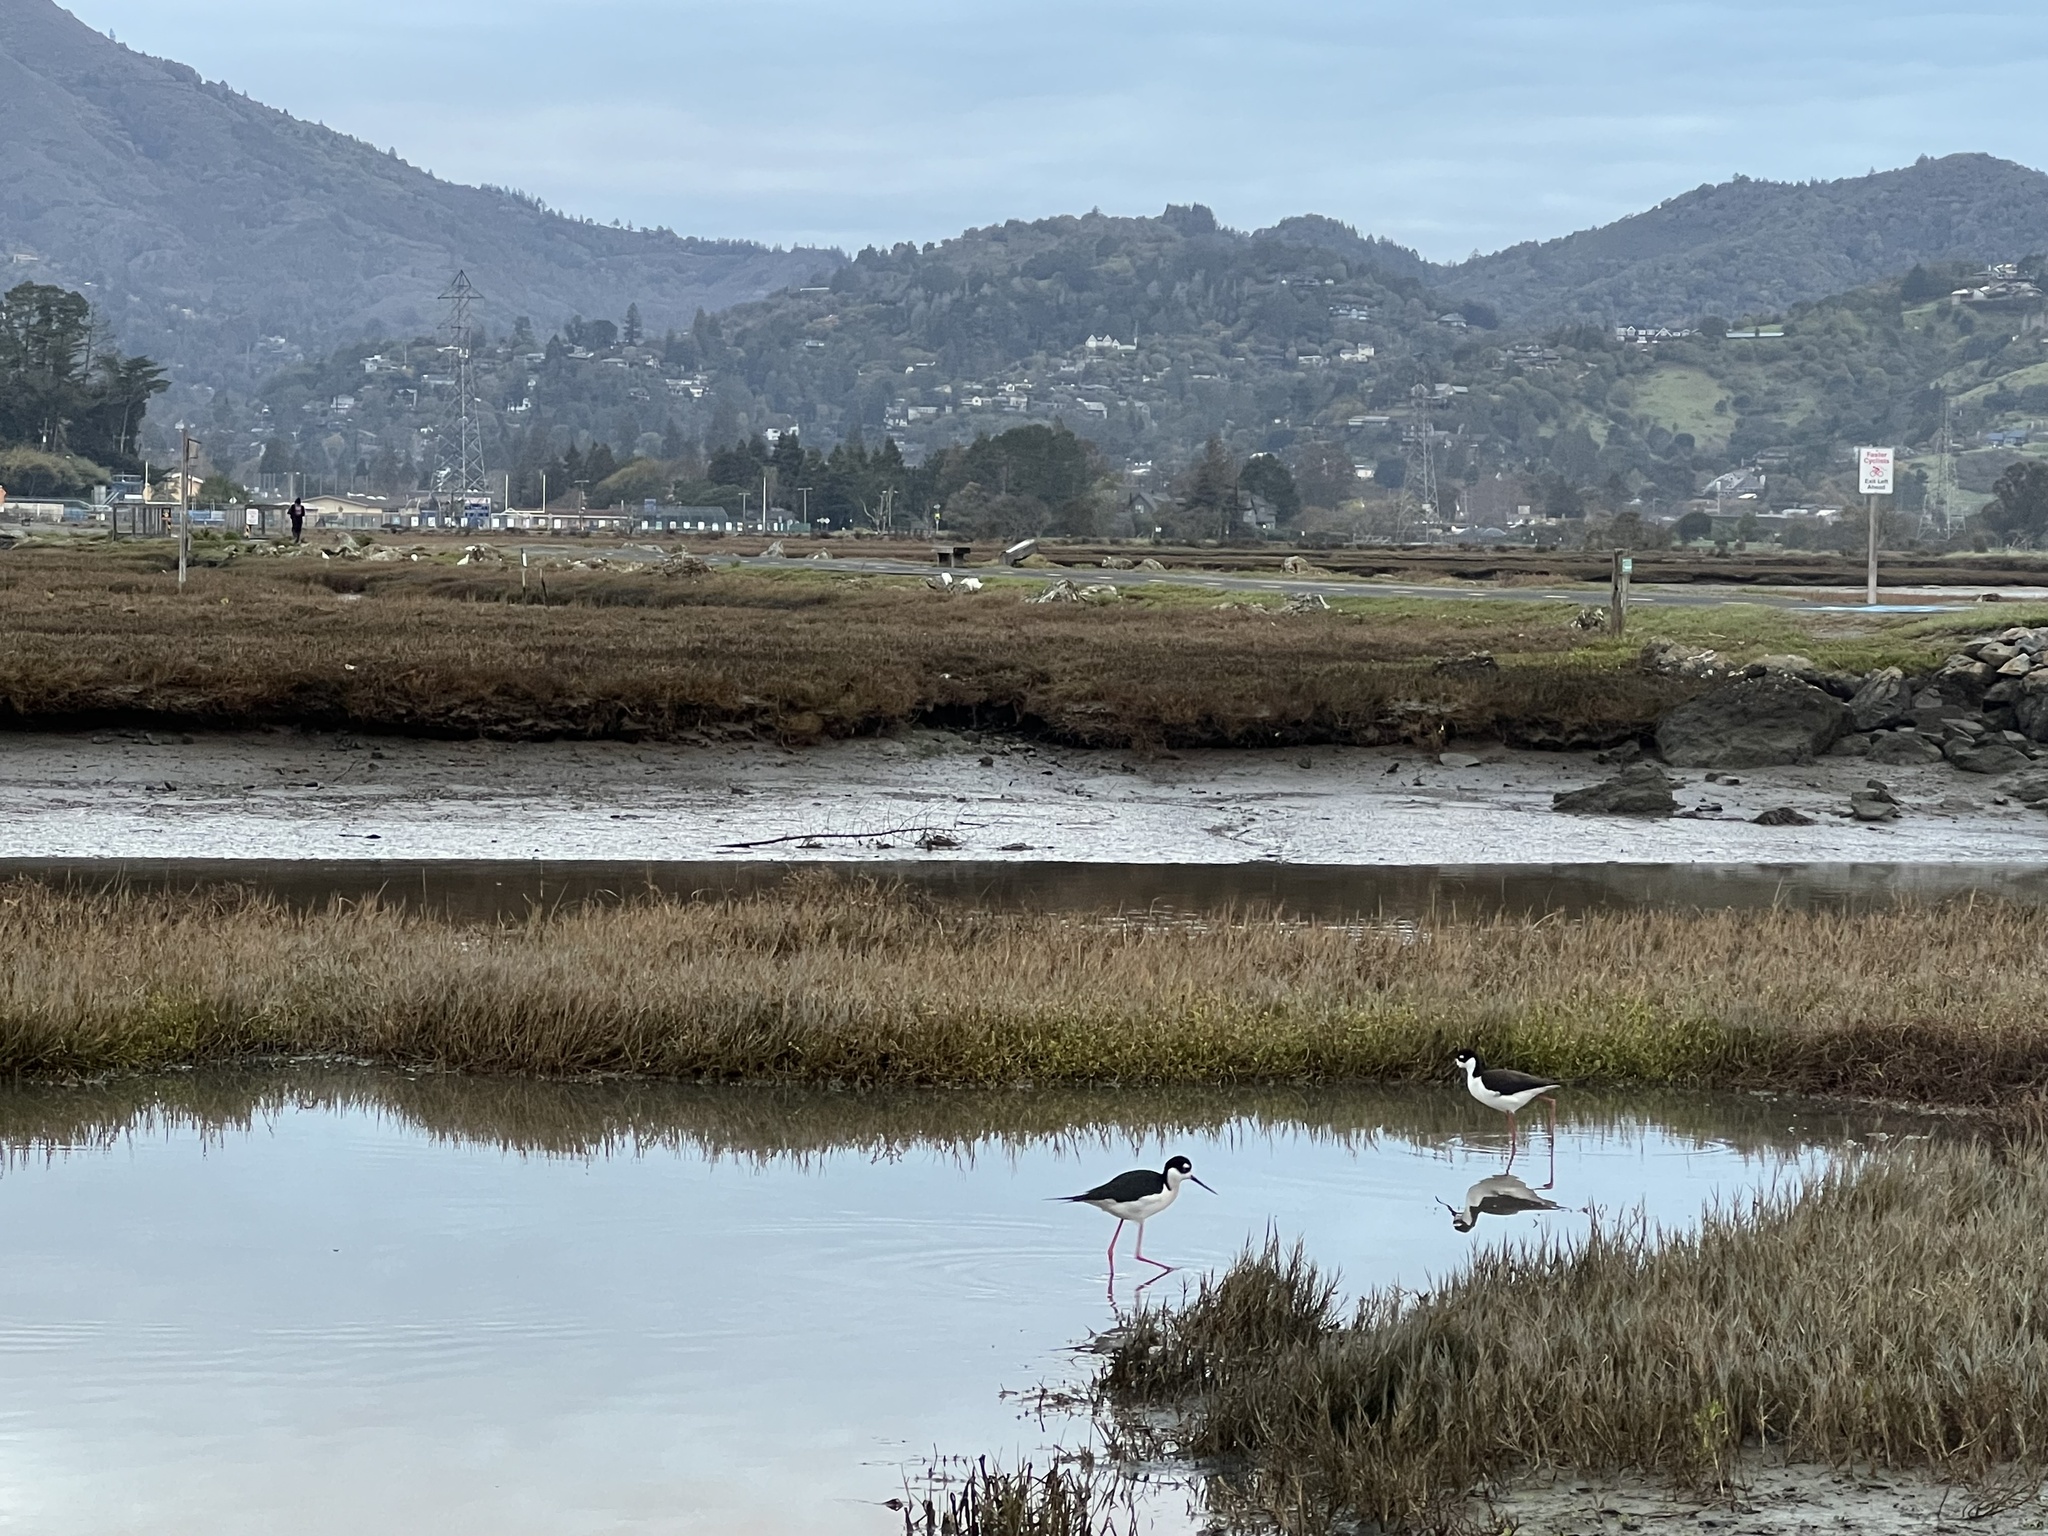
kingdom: Animalia
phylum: Chordata
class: Aves
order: Charadriiformes
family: Recurvirostridae
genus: Himantopus
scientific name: Himantopus mexicanus
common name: Black-necked stilt
